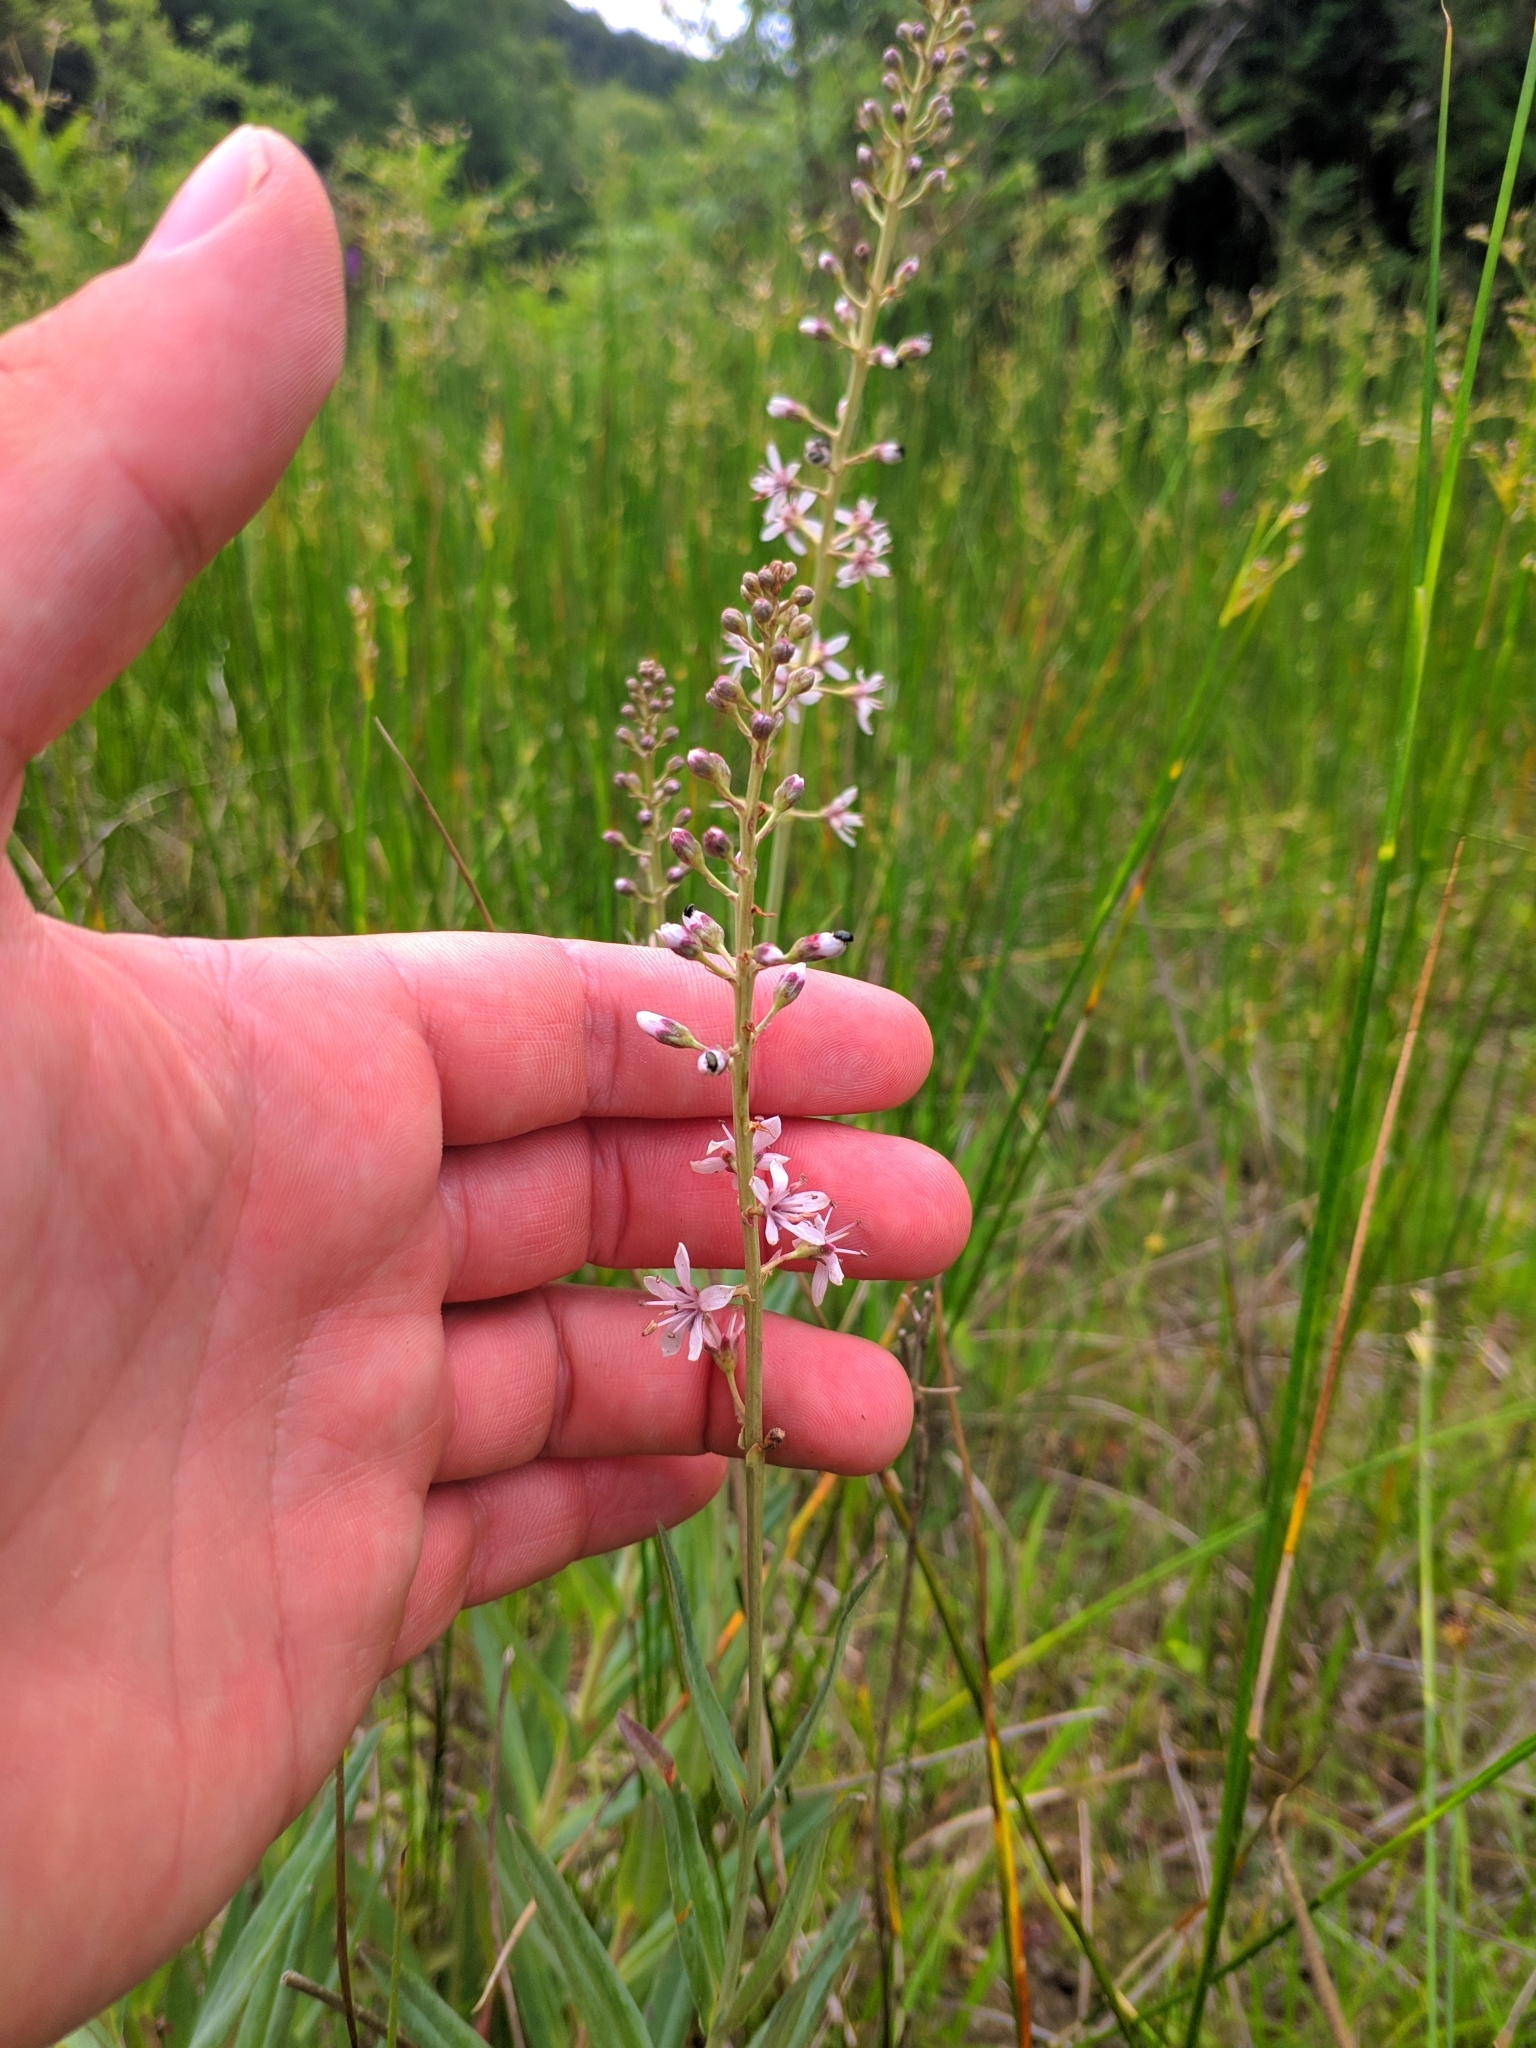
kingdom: Plantae
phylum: Tracheophyta
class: Magnoliopsida
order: Ericales
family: Primulaceae
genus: Lysimachia
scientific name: Lysimachia ephemerum
